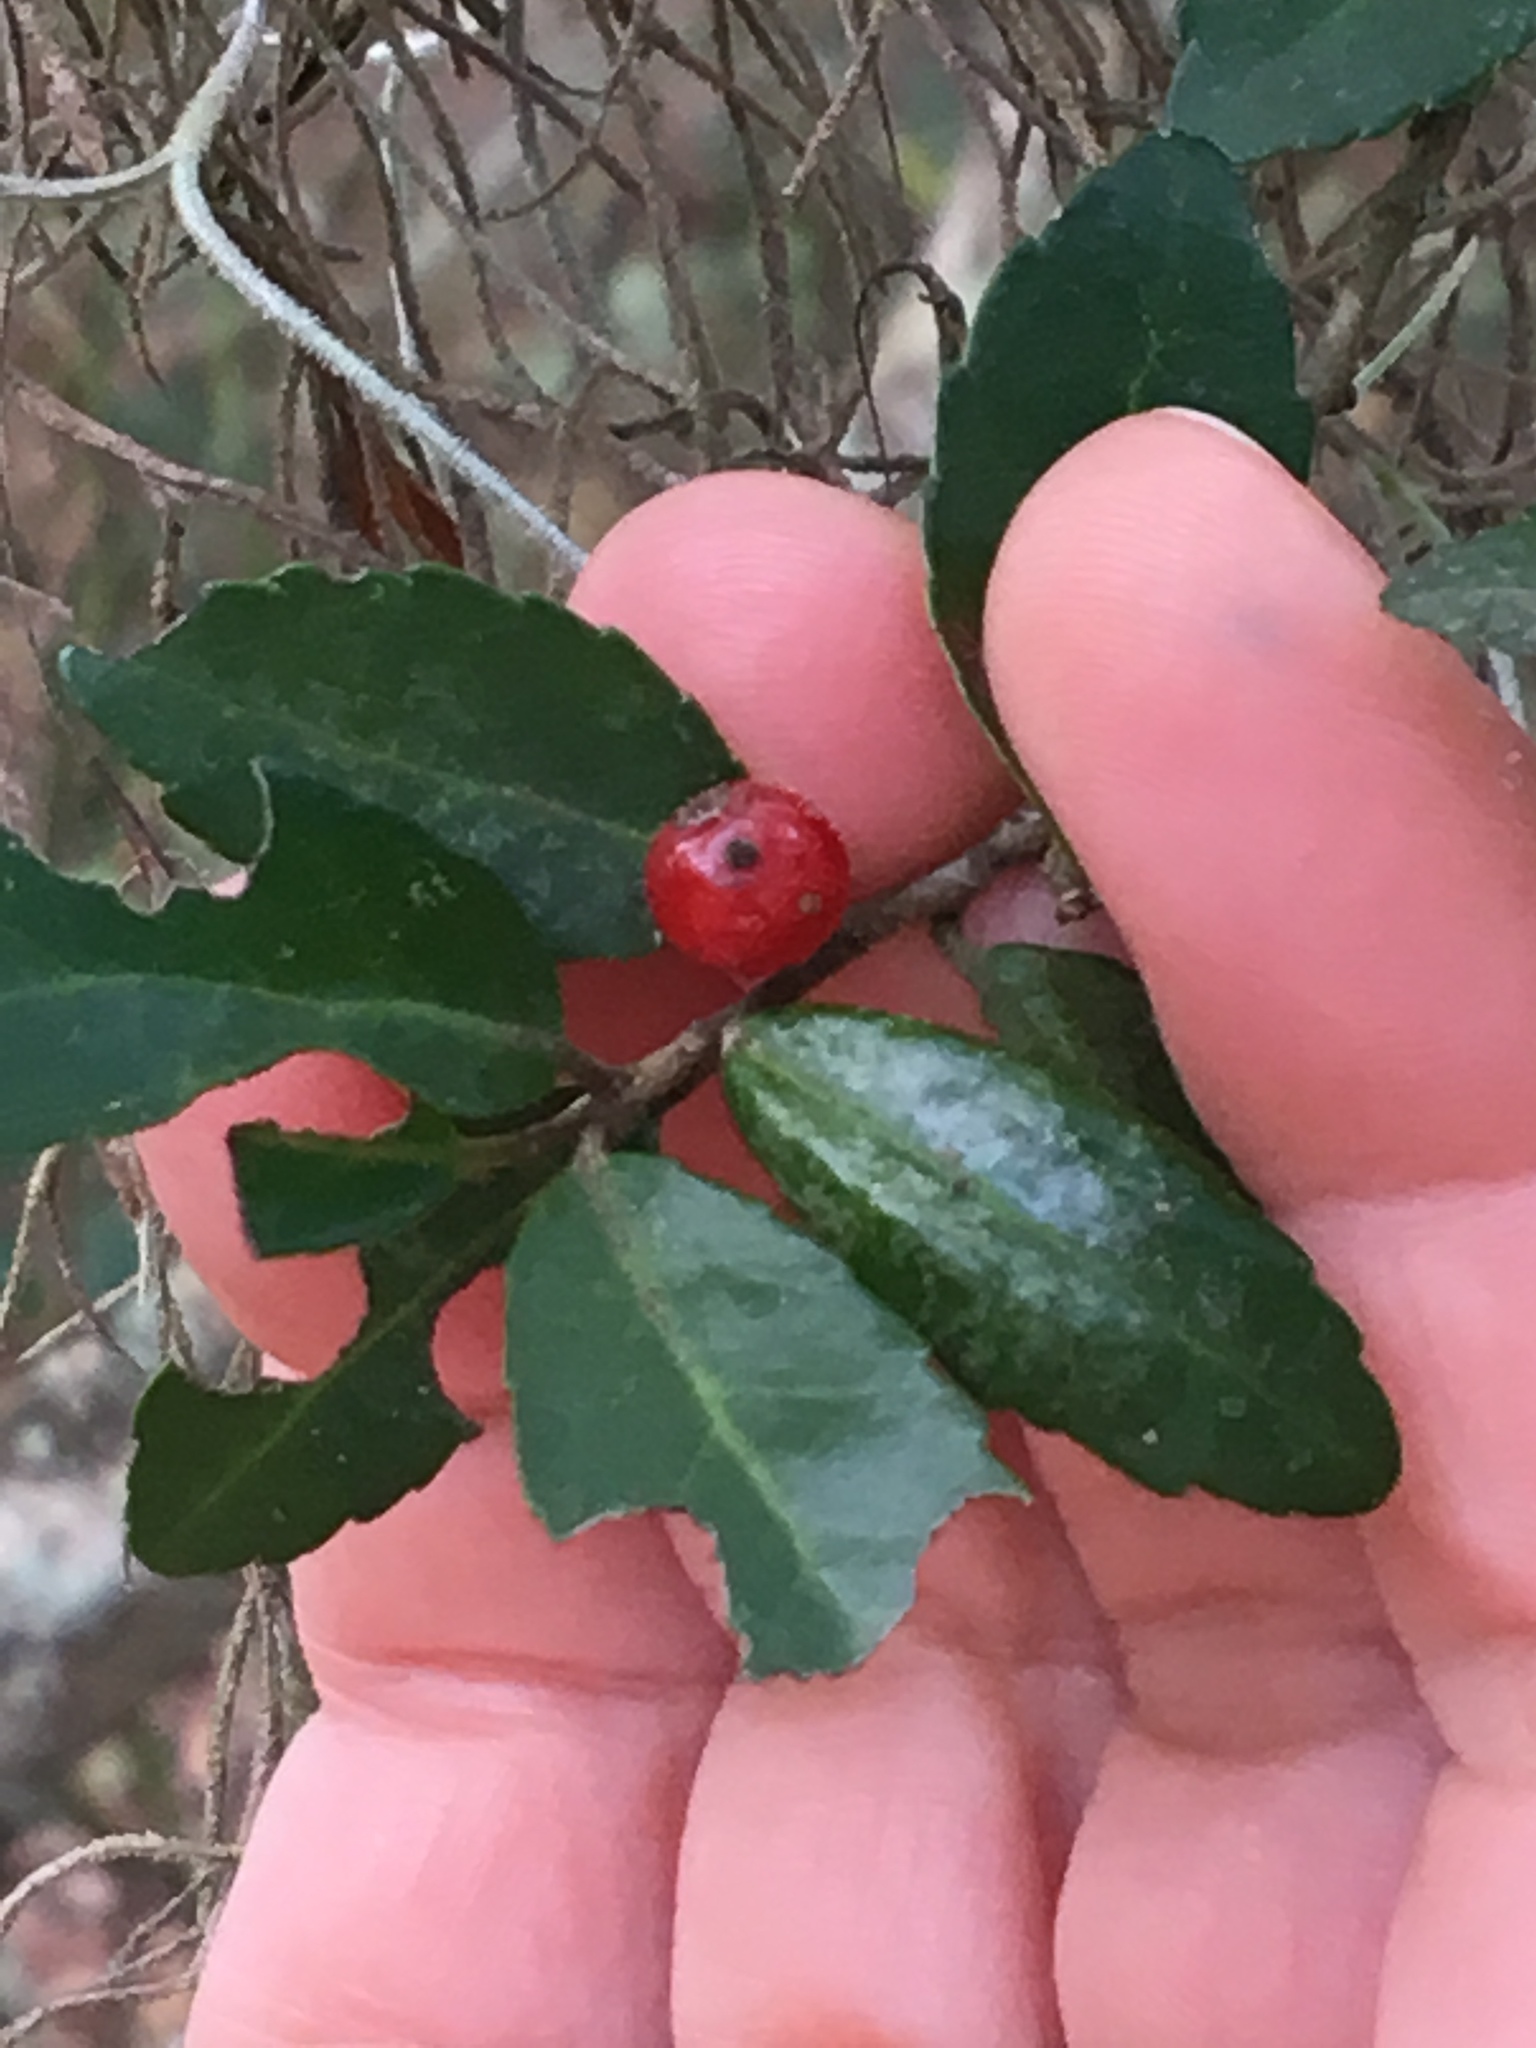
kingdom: Plantae
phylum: Tracheophyta
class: Magnoliopsida
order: Aquifoliales
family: Aquifoliaceae
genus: Ilex
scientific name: Ilex vomitoria
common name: Yaupon holly
